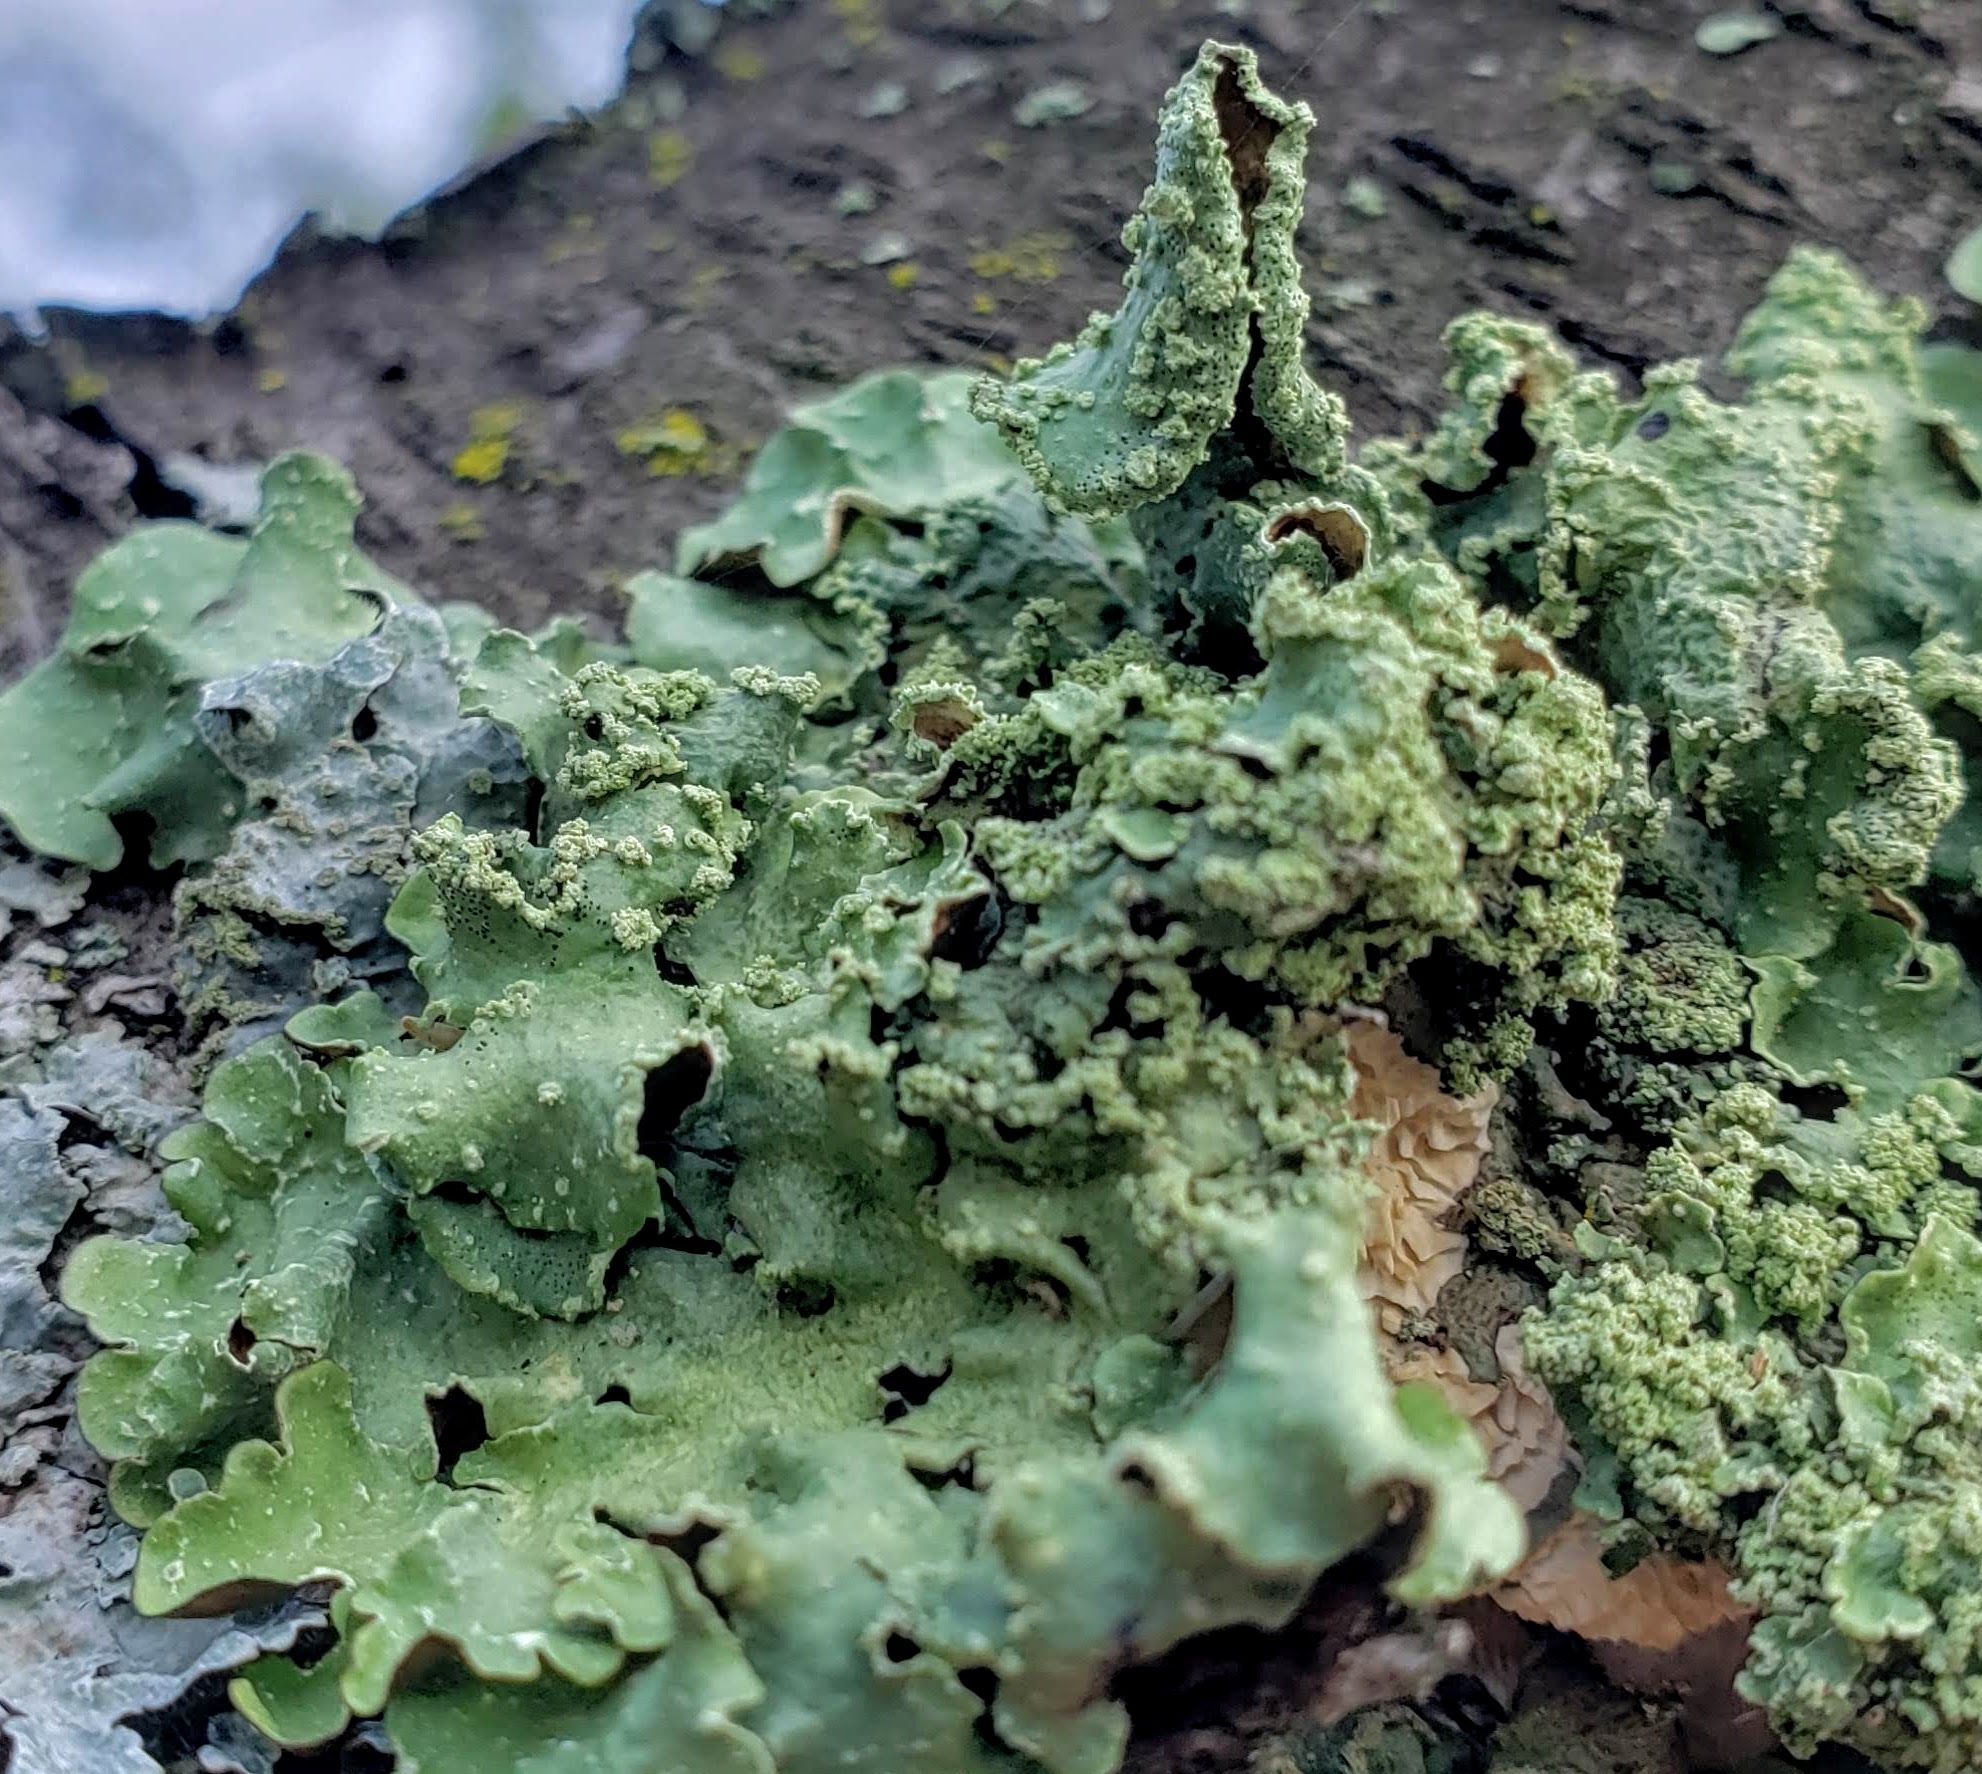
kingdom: Fungi
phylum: Ascomycota
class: Lecanoromycetes
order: Lecanorales
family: Parmeliaceae
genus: Flavopunctelia
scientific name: Flavopunctelia flaventior
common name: Speckled greenshield
